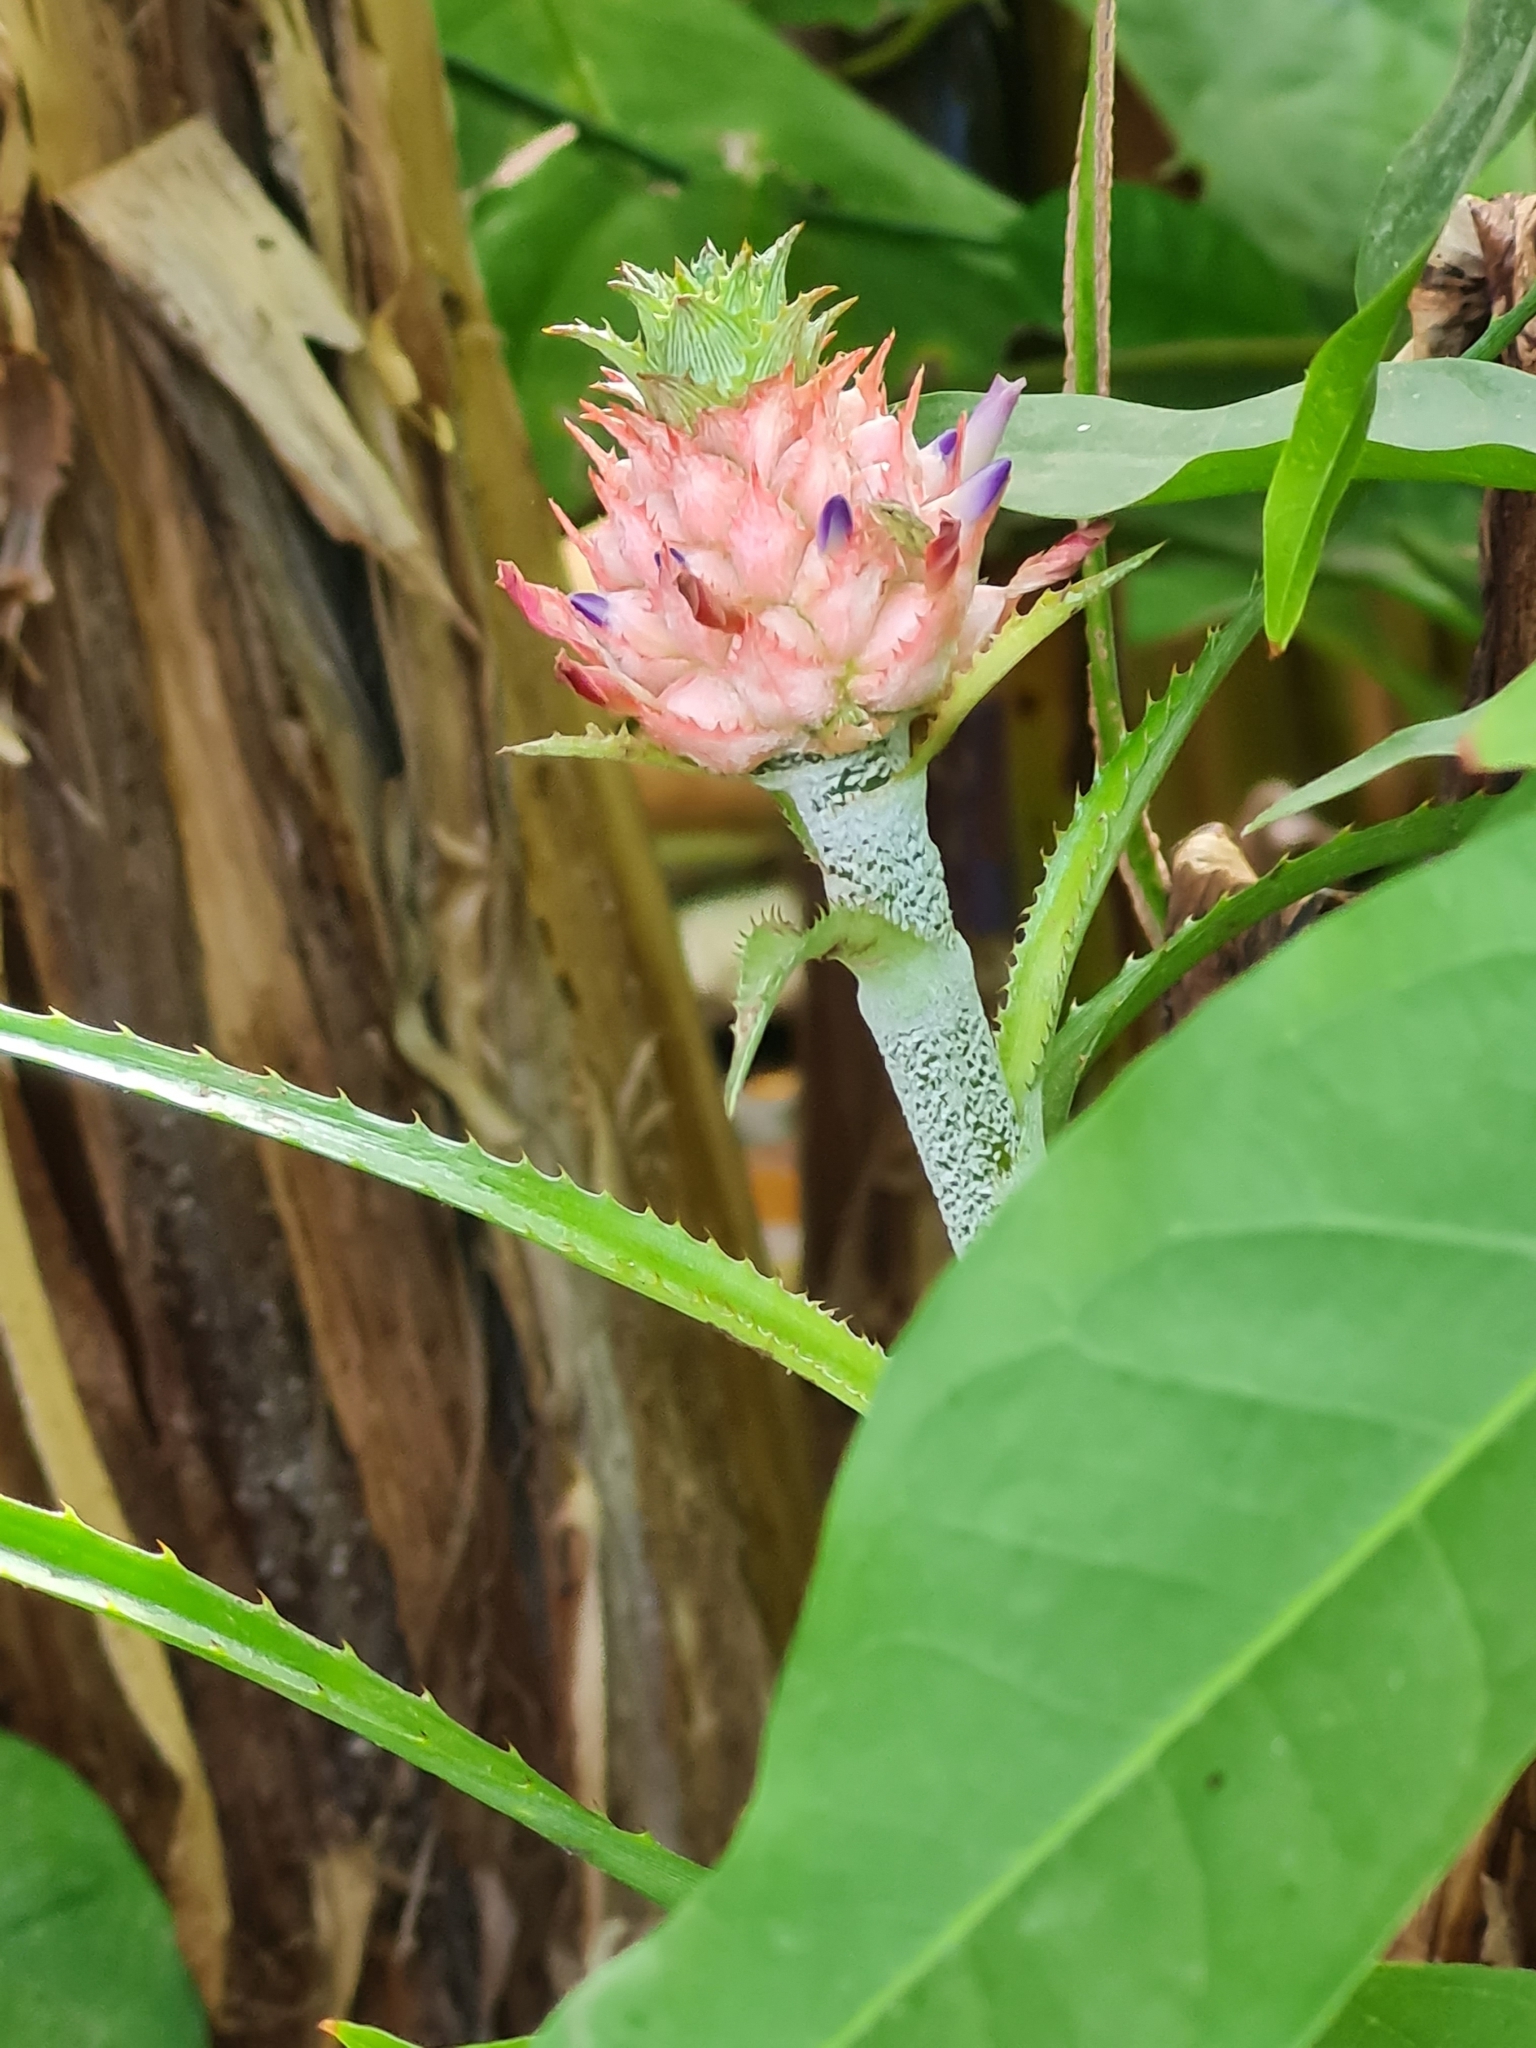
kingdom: Plantae
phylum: Tracheophyta
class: Liliopsida
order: Poales
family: Bromeliaceae
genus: Ananas
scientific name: Ananas comosus
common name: Pineapple
